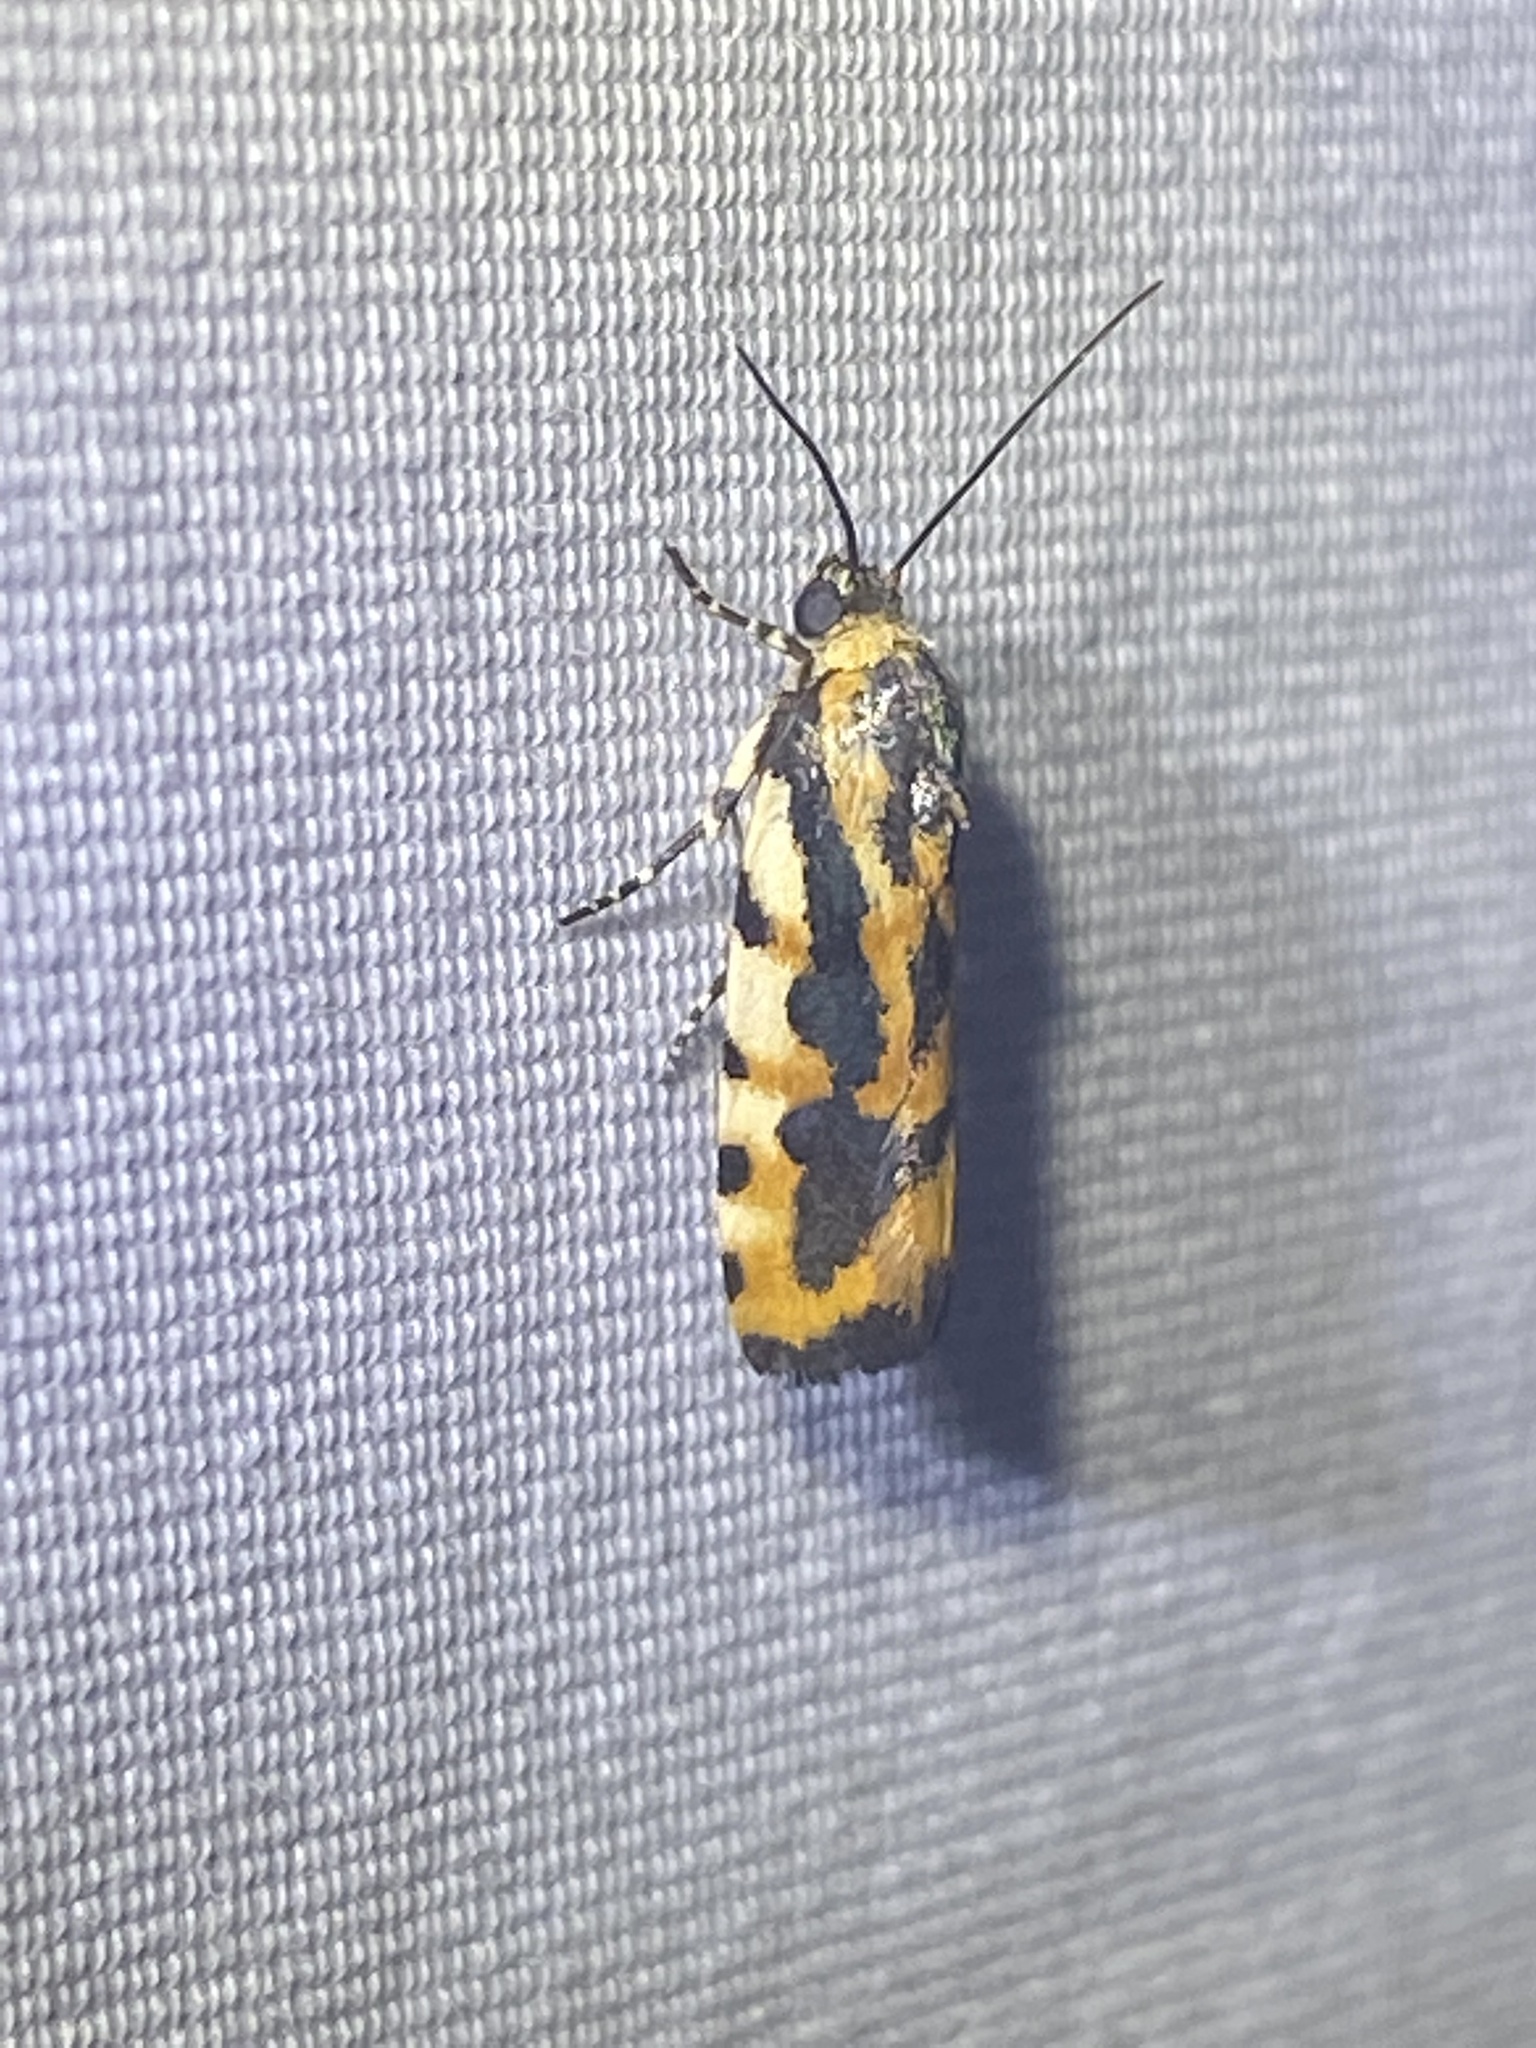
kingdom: Animalia
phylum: Arthropoda
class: Insecta
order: Lepidoptera
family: Noctuidae
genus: Acontia
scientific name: Acontia leo
